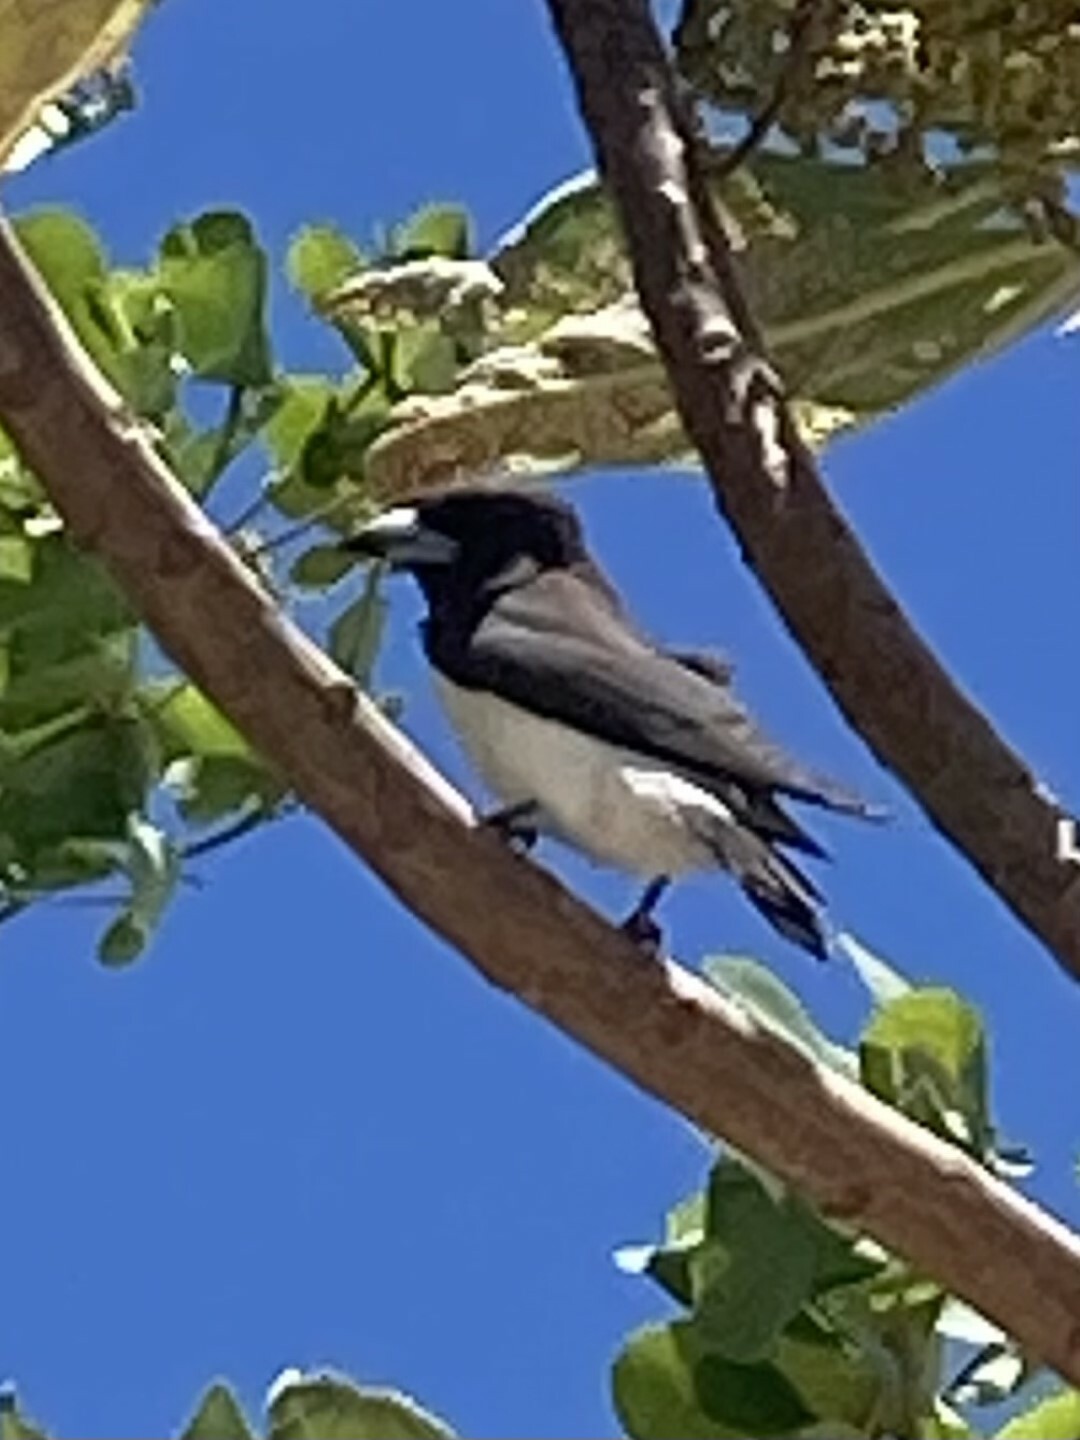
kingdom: Animalia
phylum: Chordata
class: Aves
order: Passeriformes
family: Artamidae
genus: Artamus
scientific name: Artamus mentalis
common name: Fiji woodswallow
